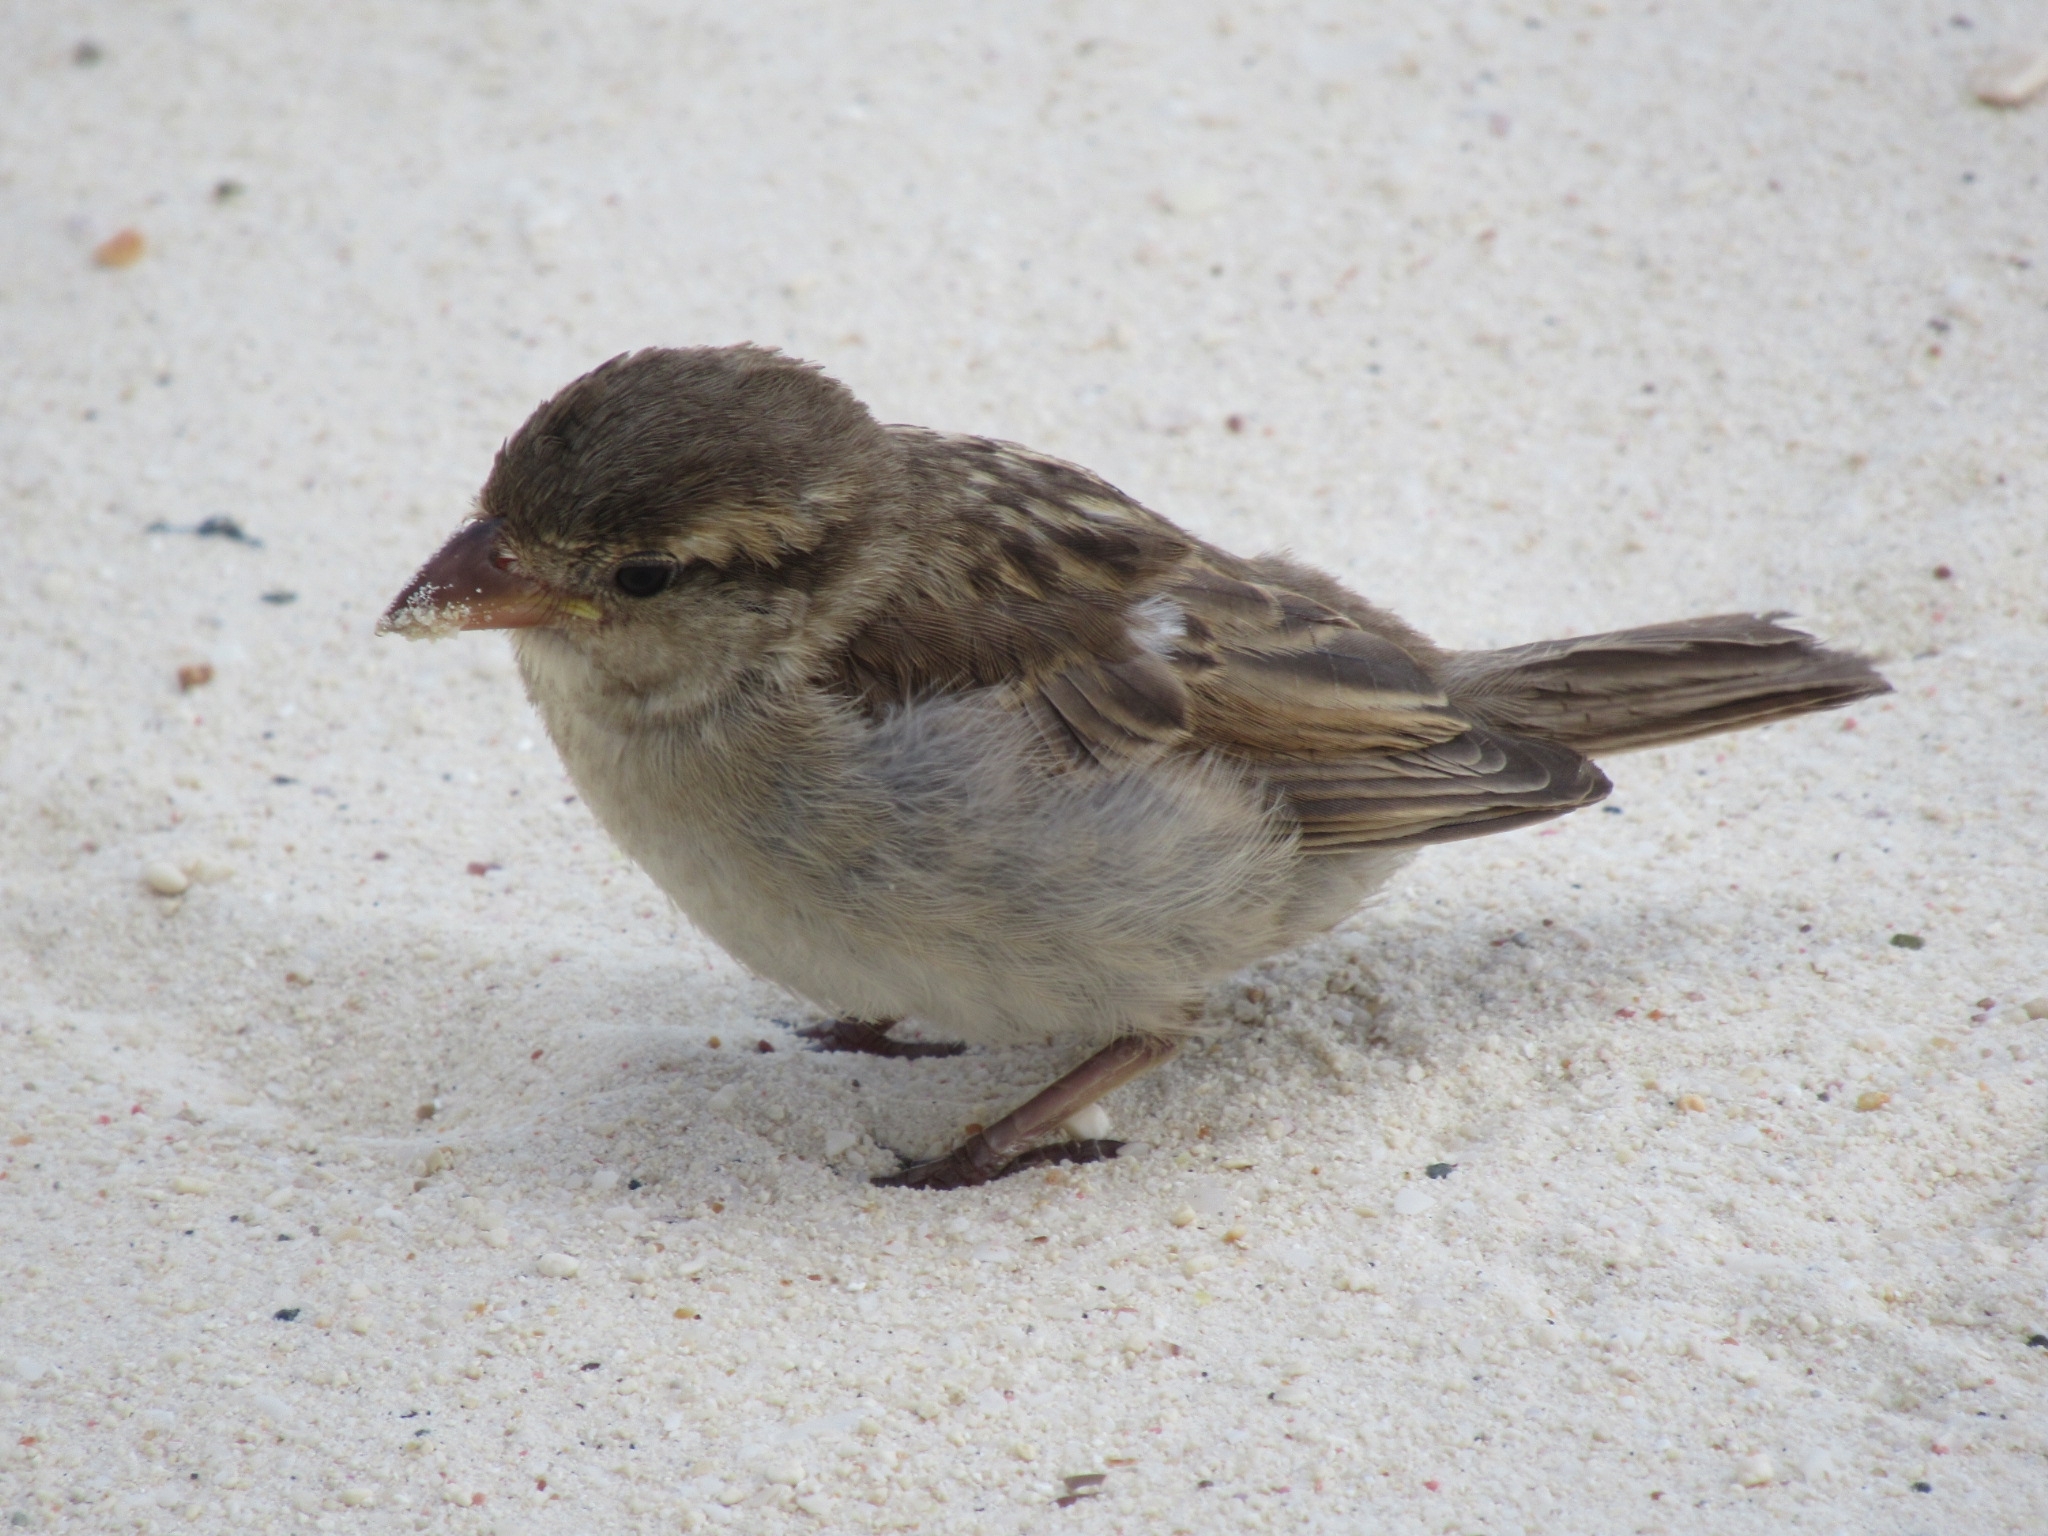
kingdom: Animalia
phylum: Chordata
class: Aves
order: Passeriformes
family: Passeridae
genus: Passer
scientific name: Passer domesticus
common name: House sparrow
